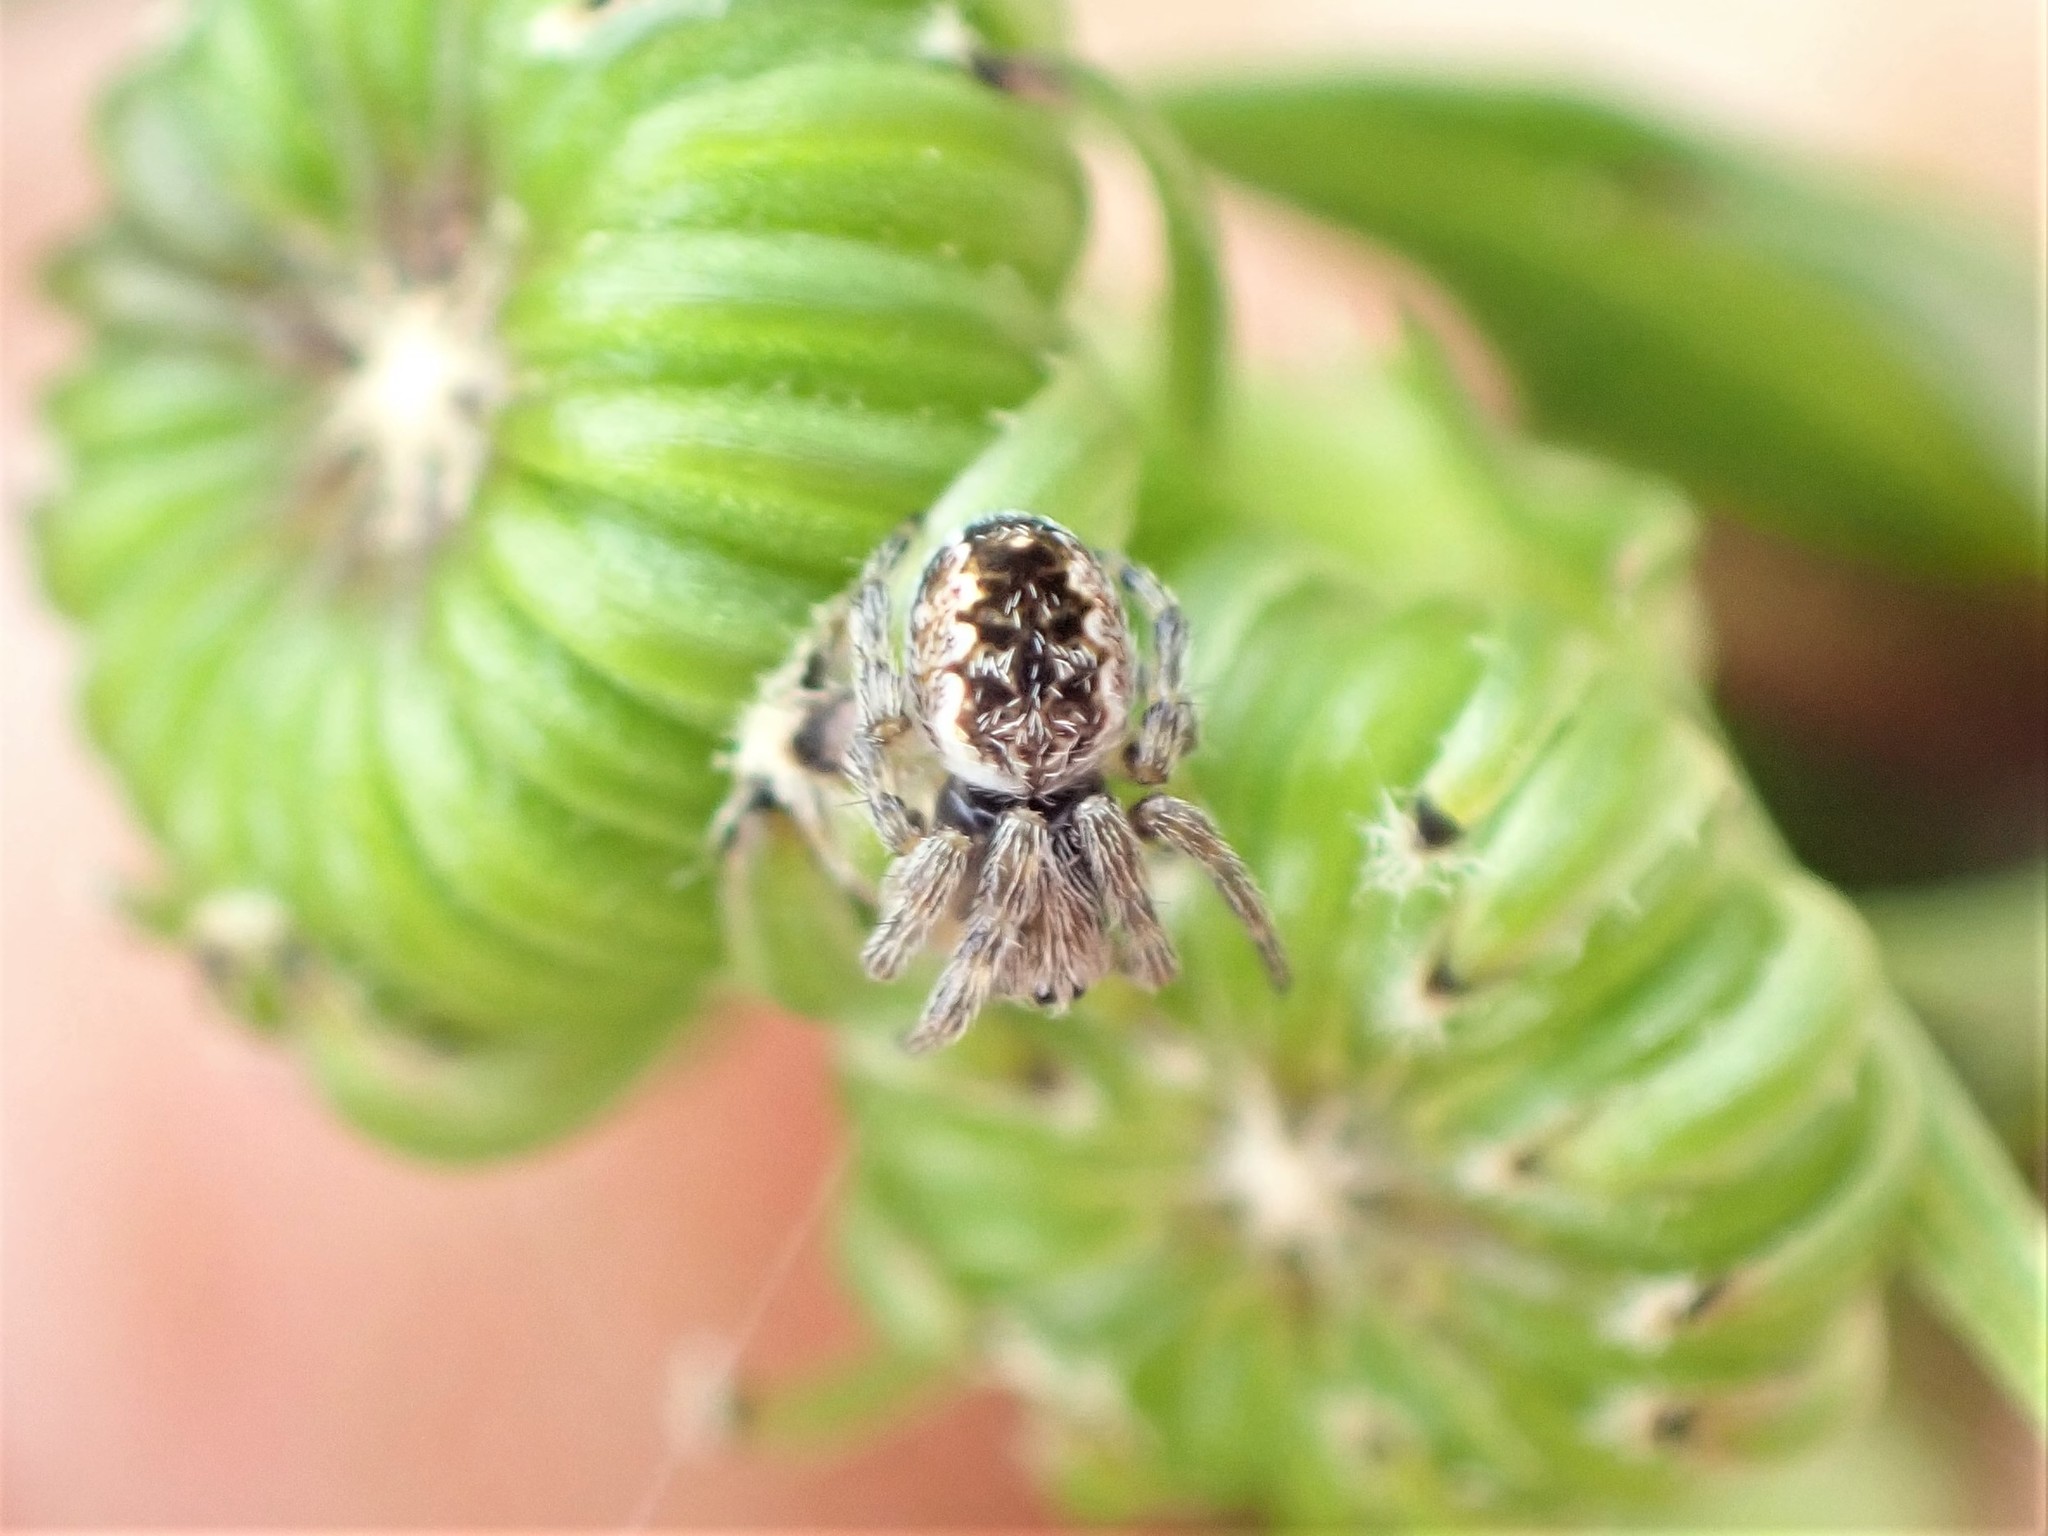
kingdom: Animalia
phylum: Arthropoda
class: Arachnida
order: Araneae
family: Araneidae
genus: Salsa
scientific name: Salsa fuliginata
